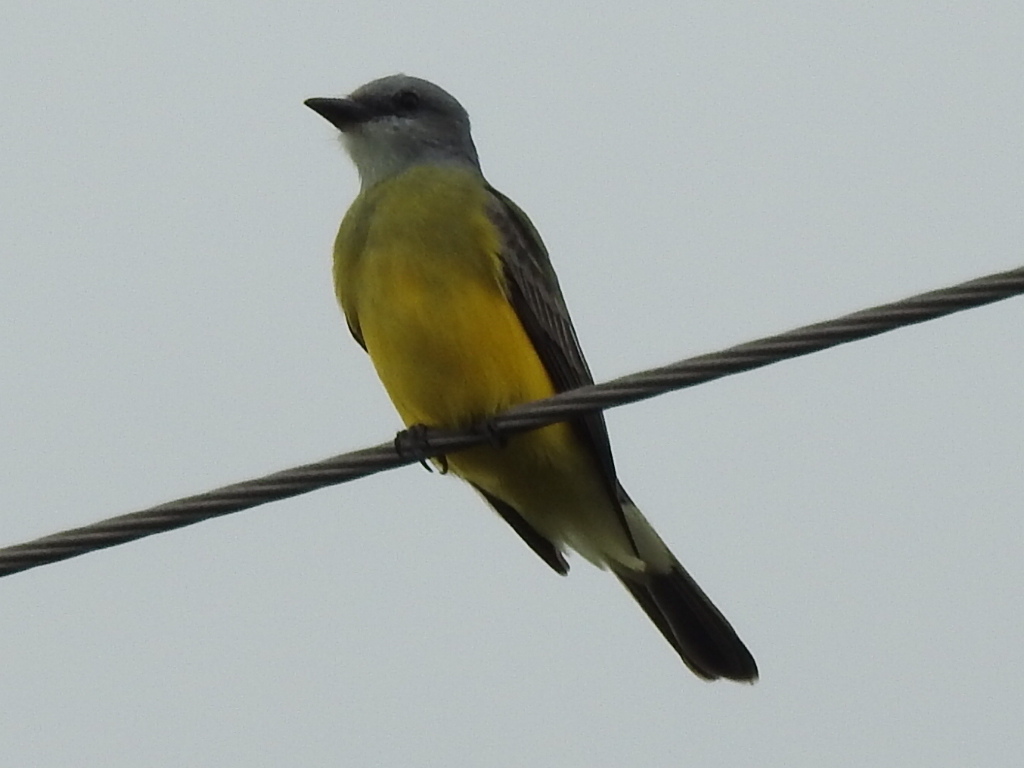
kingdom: Animalia
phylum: Chordata
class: Aves
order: Passeriformes
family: Tyrannidae
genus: Tyrannus
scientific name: Tyrannus couchii
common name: Couch's kingbird
